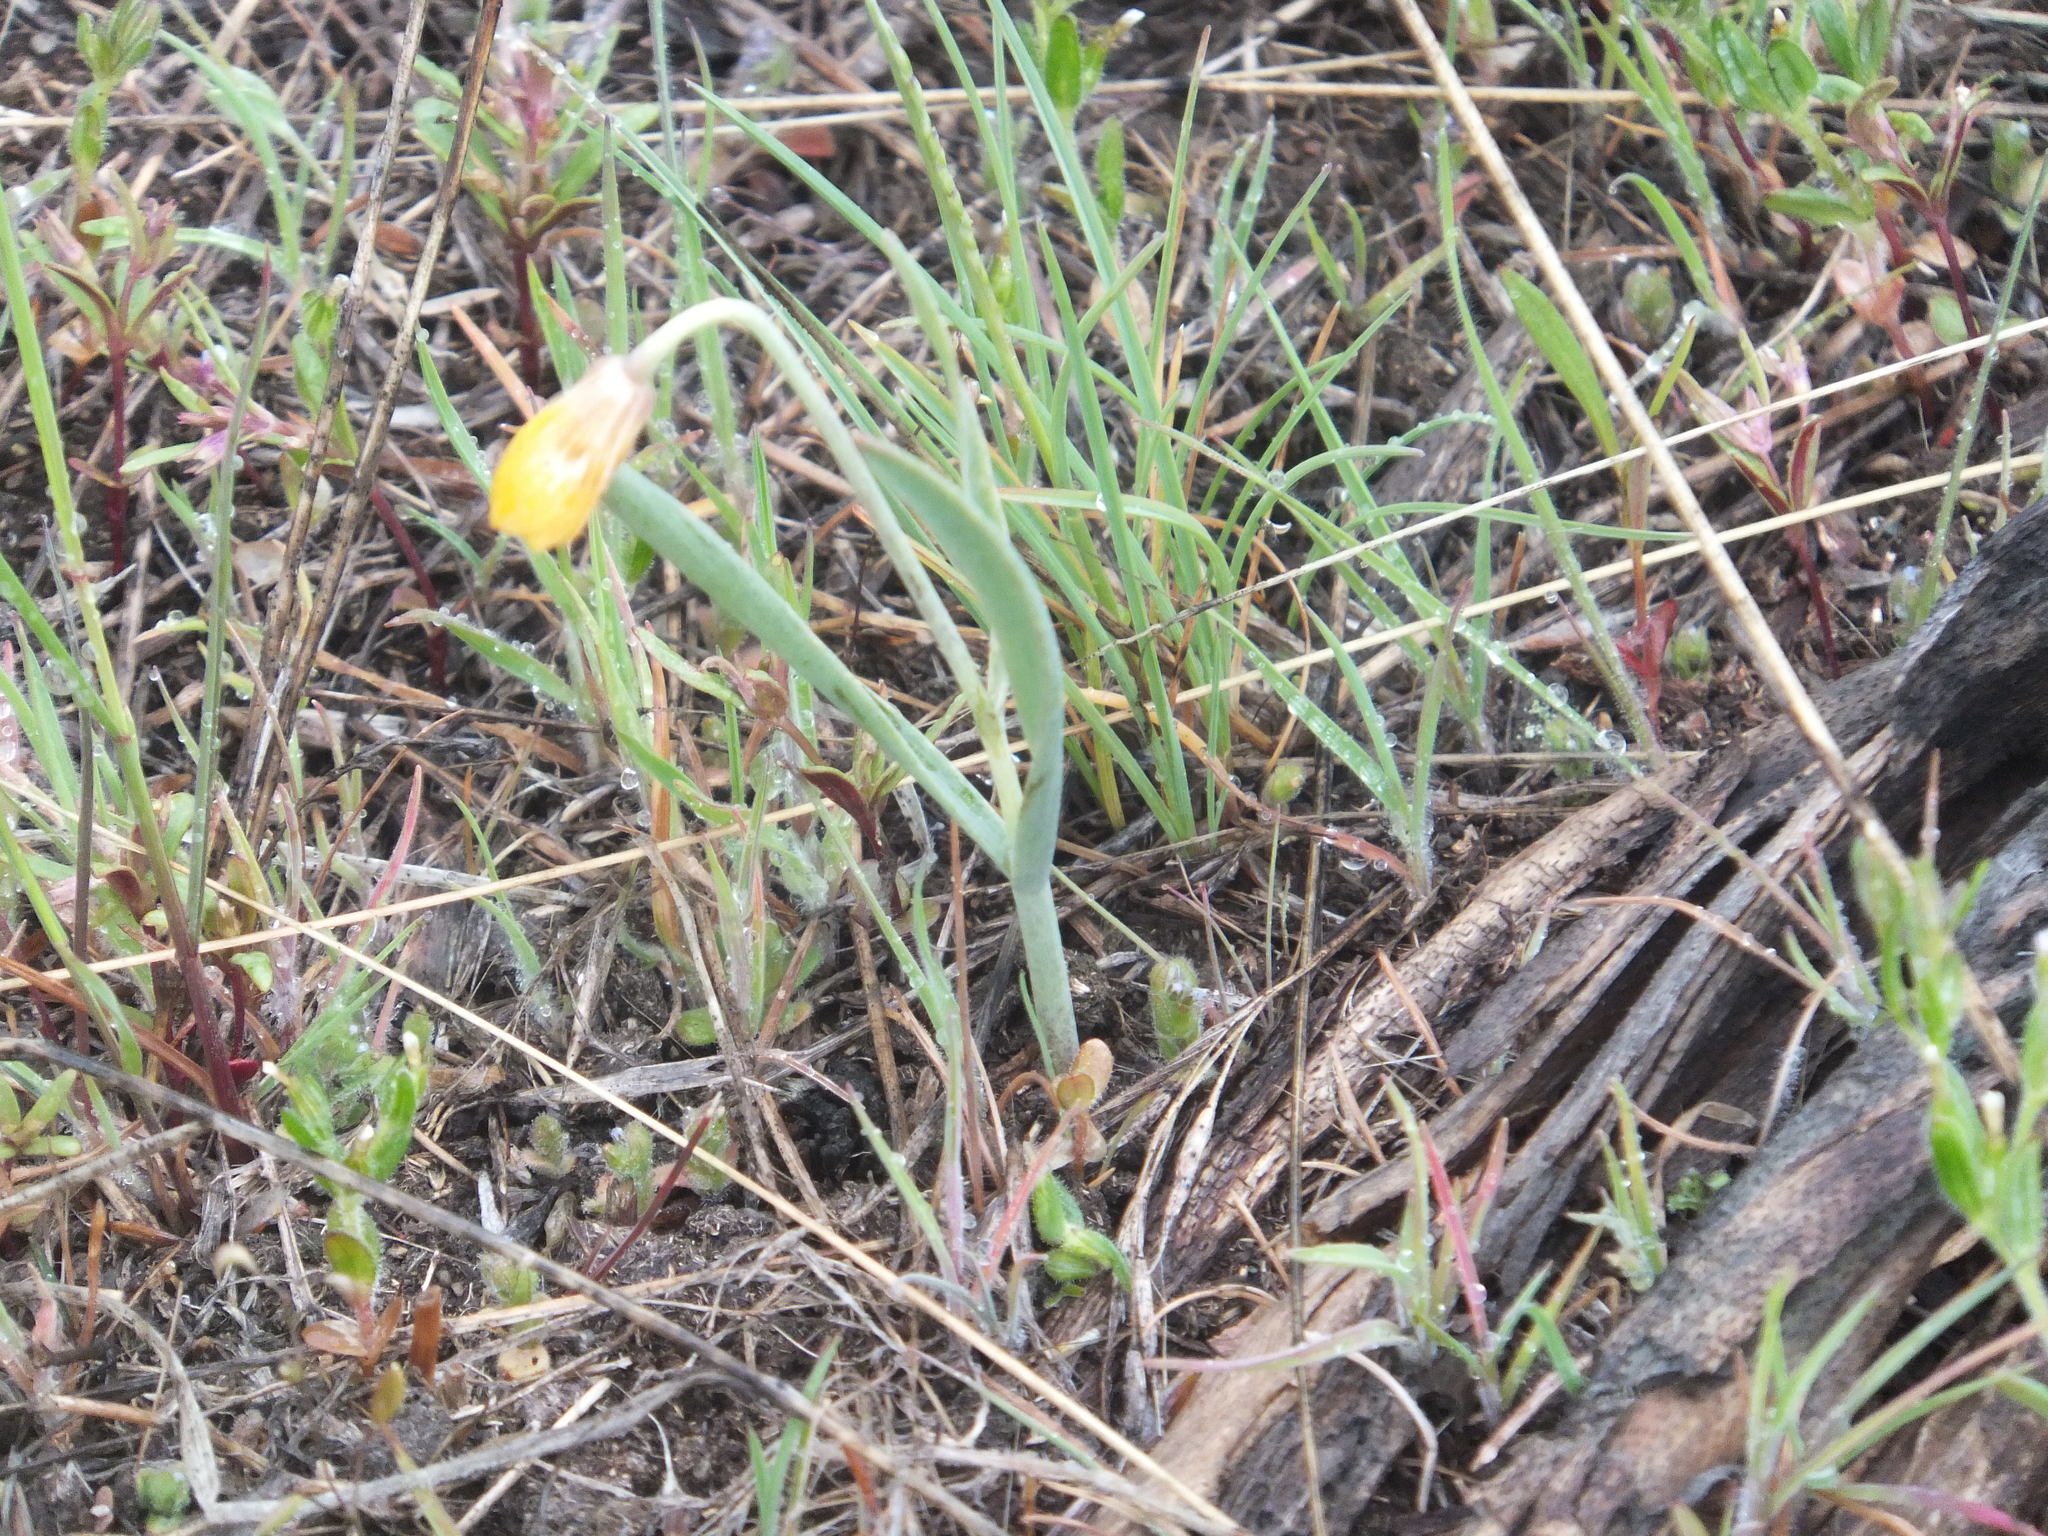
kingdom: Plantae
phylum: Tracheophyta
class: Liliopsida
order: Liliales
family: Liliaceae
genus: Fritillaria
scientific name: Fritillaria pudica
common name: Yellow fritillary
